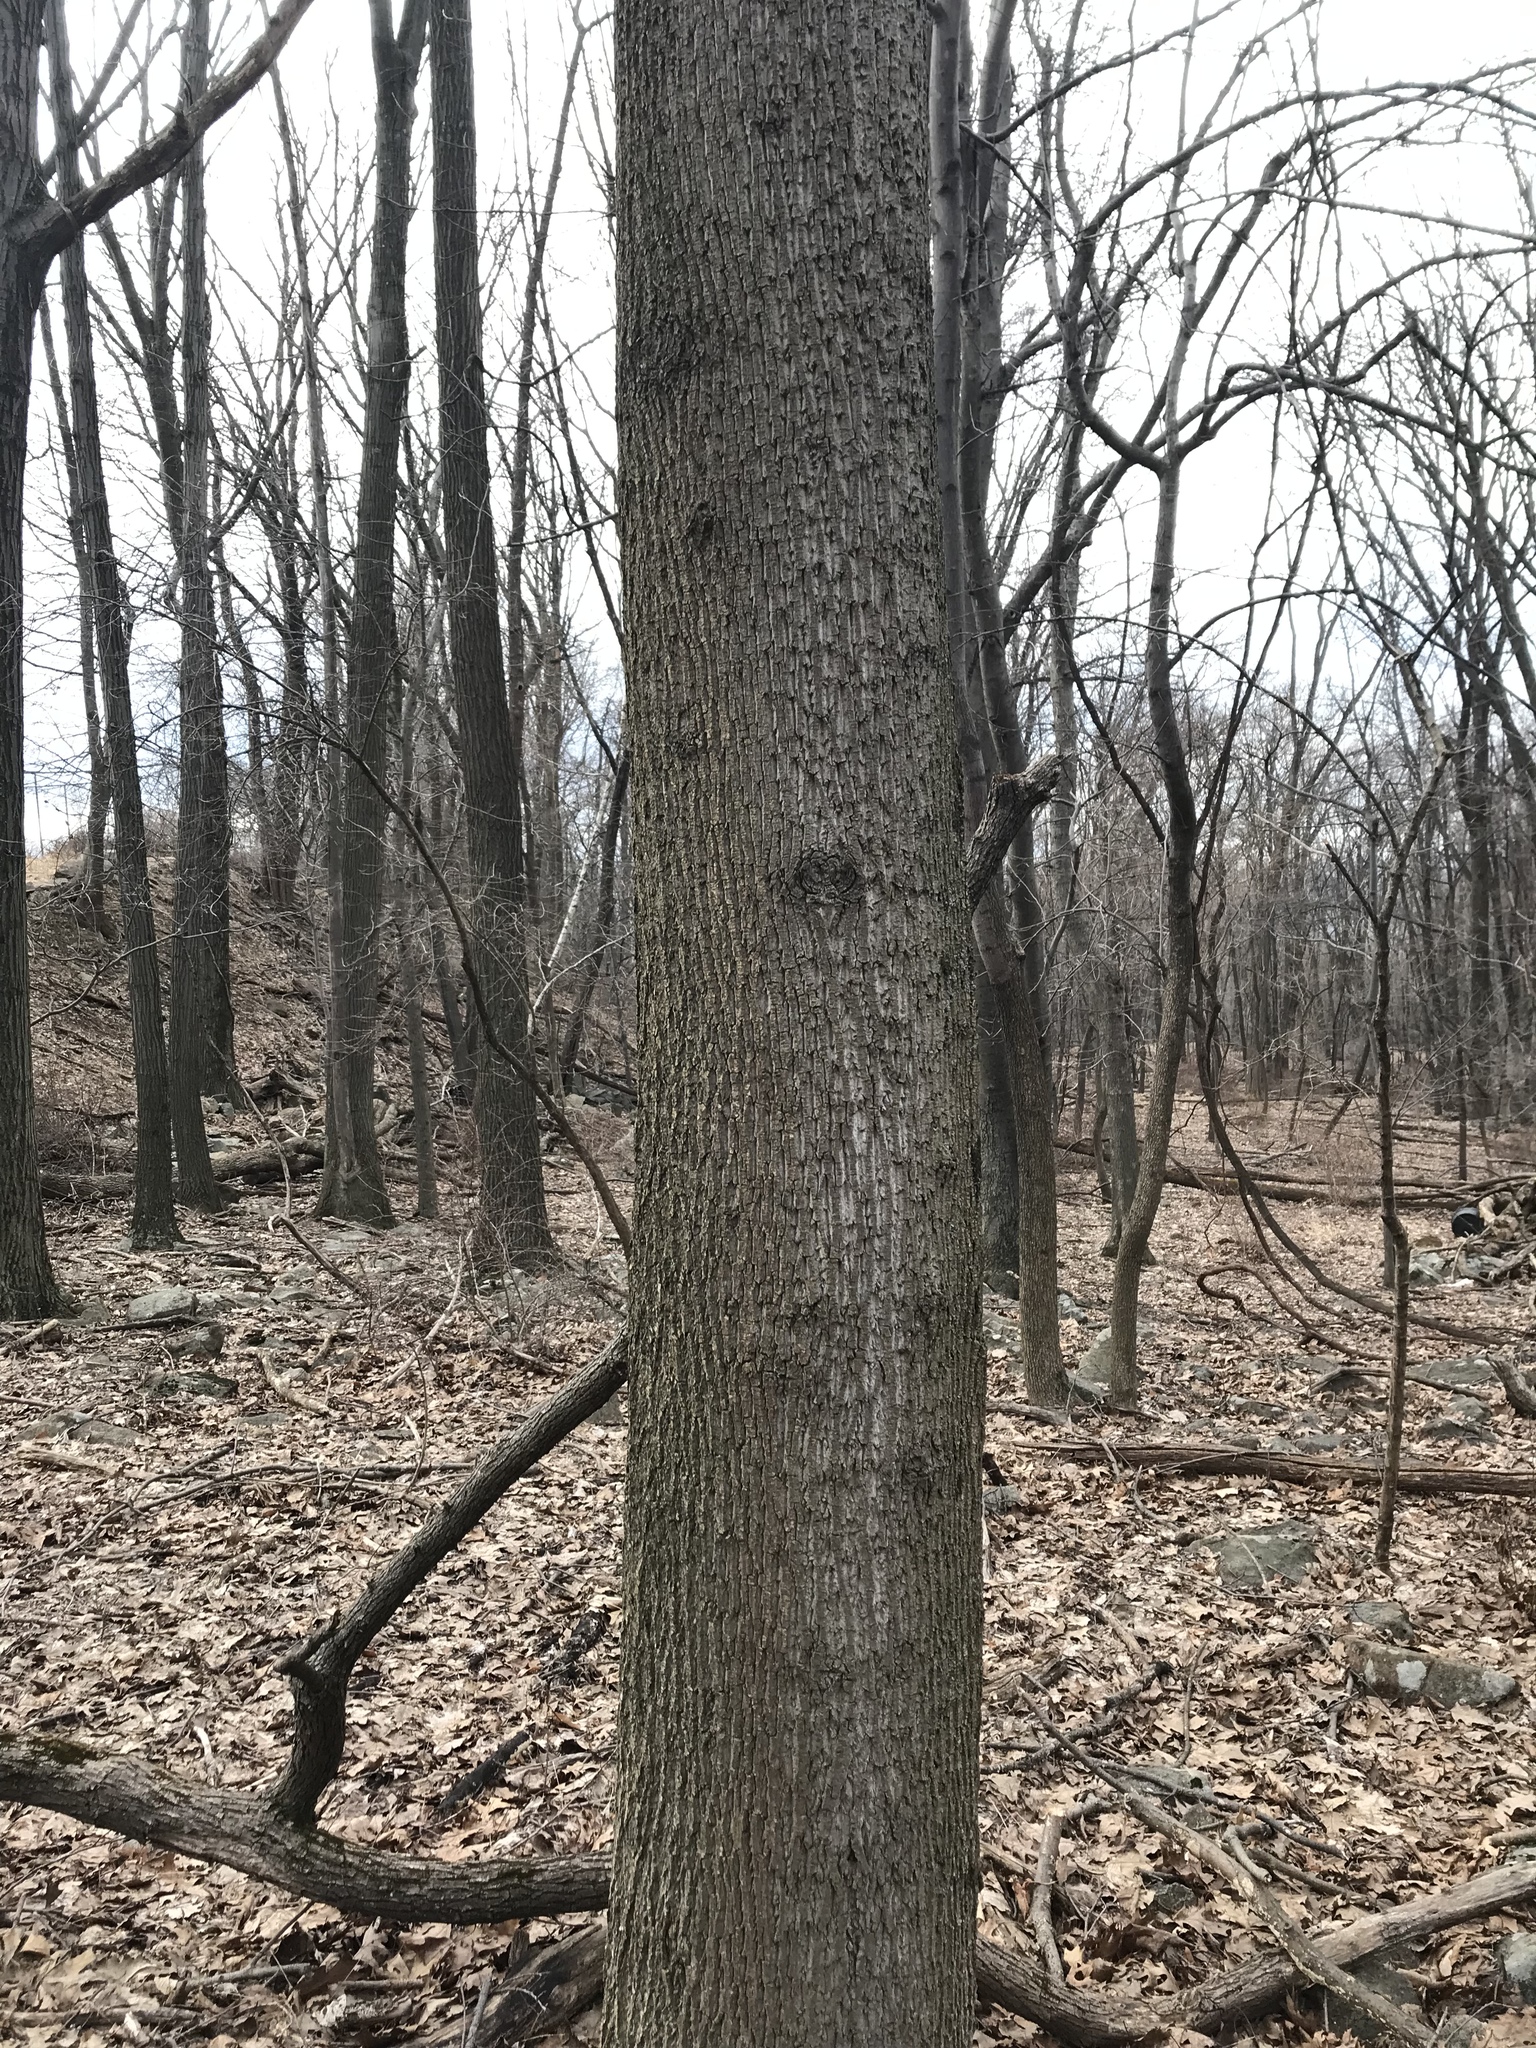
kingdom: Plantae
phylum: Tracheophyta
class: Magnoliopsida
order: Magnoliales
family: Magnoliaceae
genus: Liriodendron
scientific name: Liriodendron tulipifera
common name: Tulip tree
